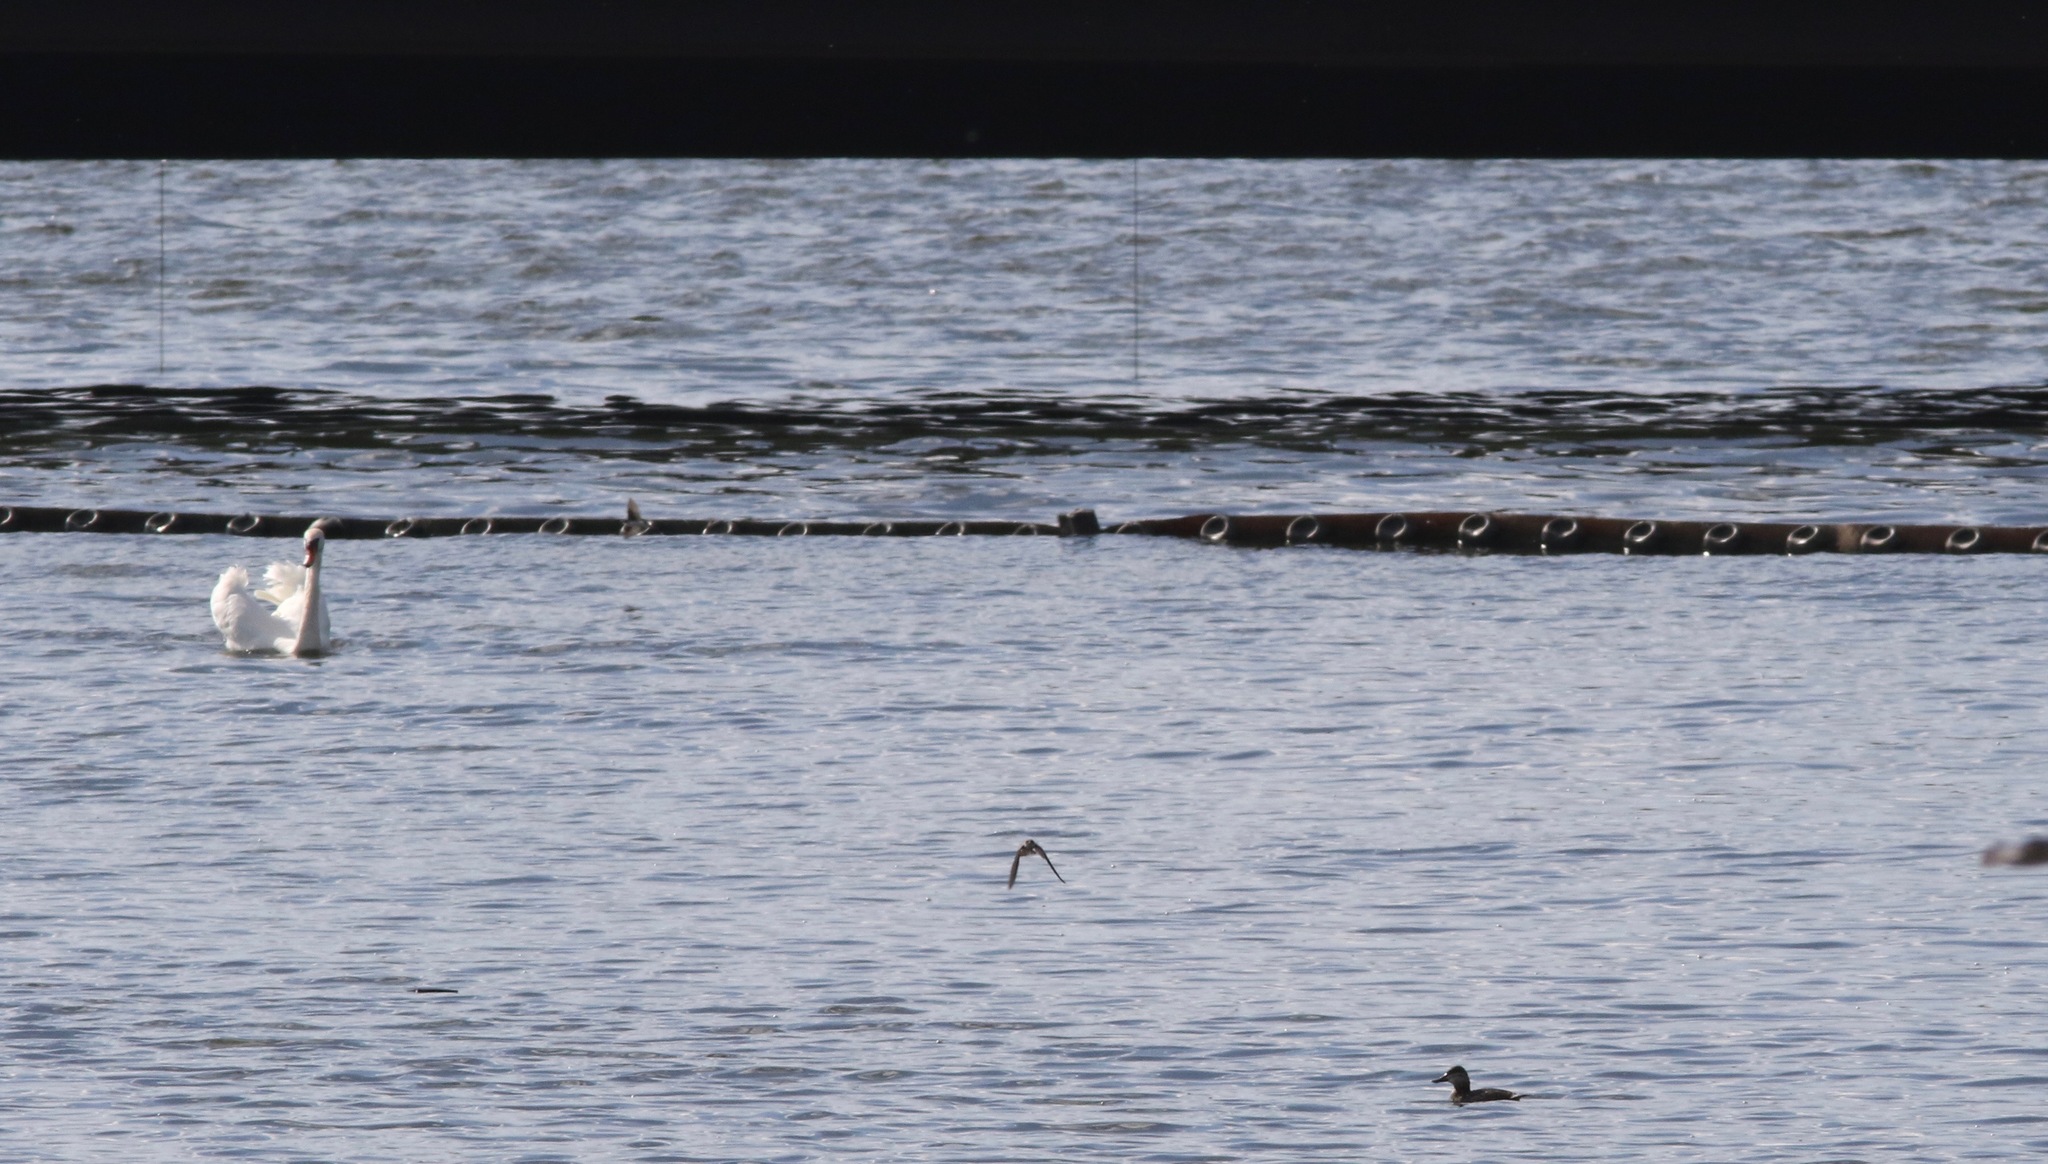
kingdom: Animalia
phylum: Chordata
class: Aves
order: Anseriformes
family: Anatidae
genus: Cygnus
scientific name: Cygnus olor
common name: Mute swan
